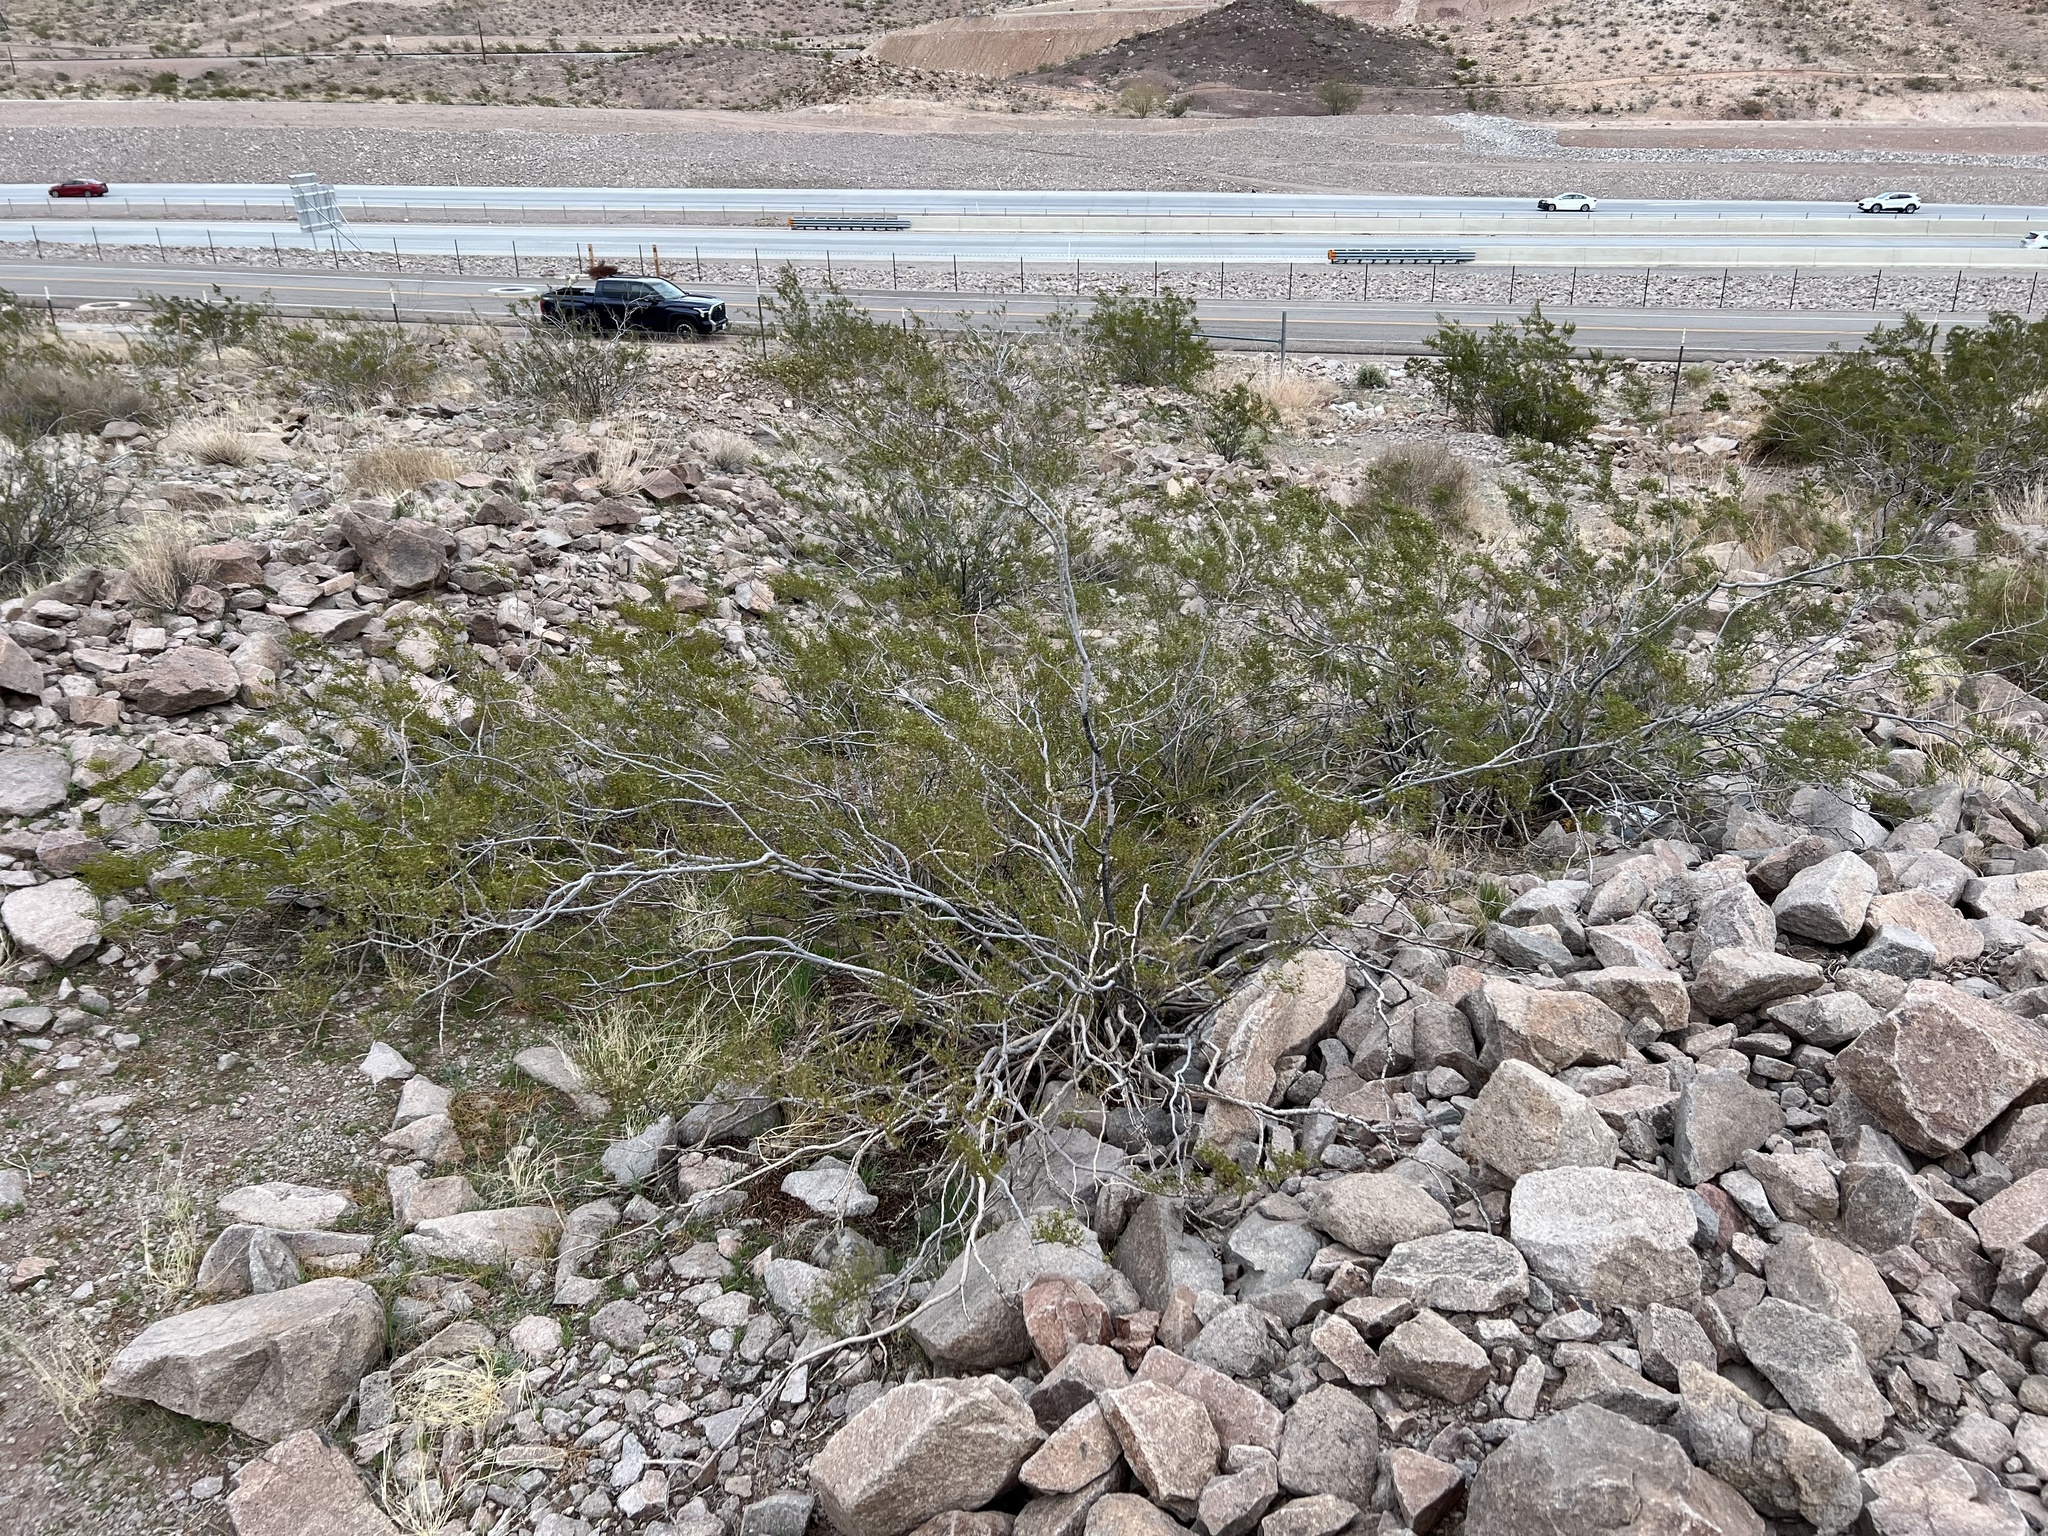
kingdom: Plantae
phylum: Tracheophyta
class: Magnoliopsida
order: Zygophyllales
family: Zygophyllaceae
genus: Larrea
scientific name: Larrea tridentata
